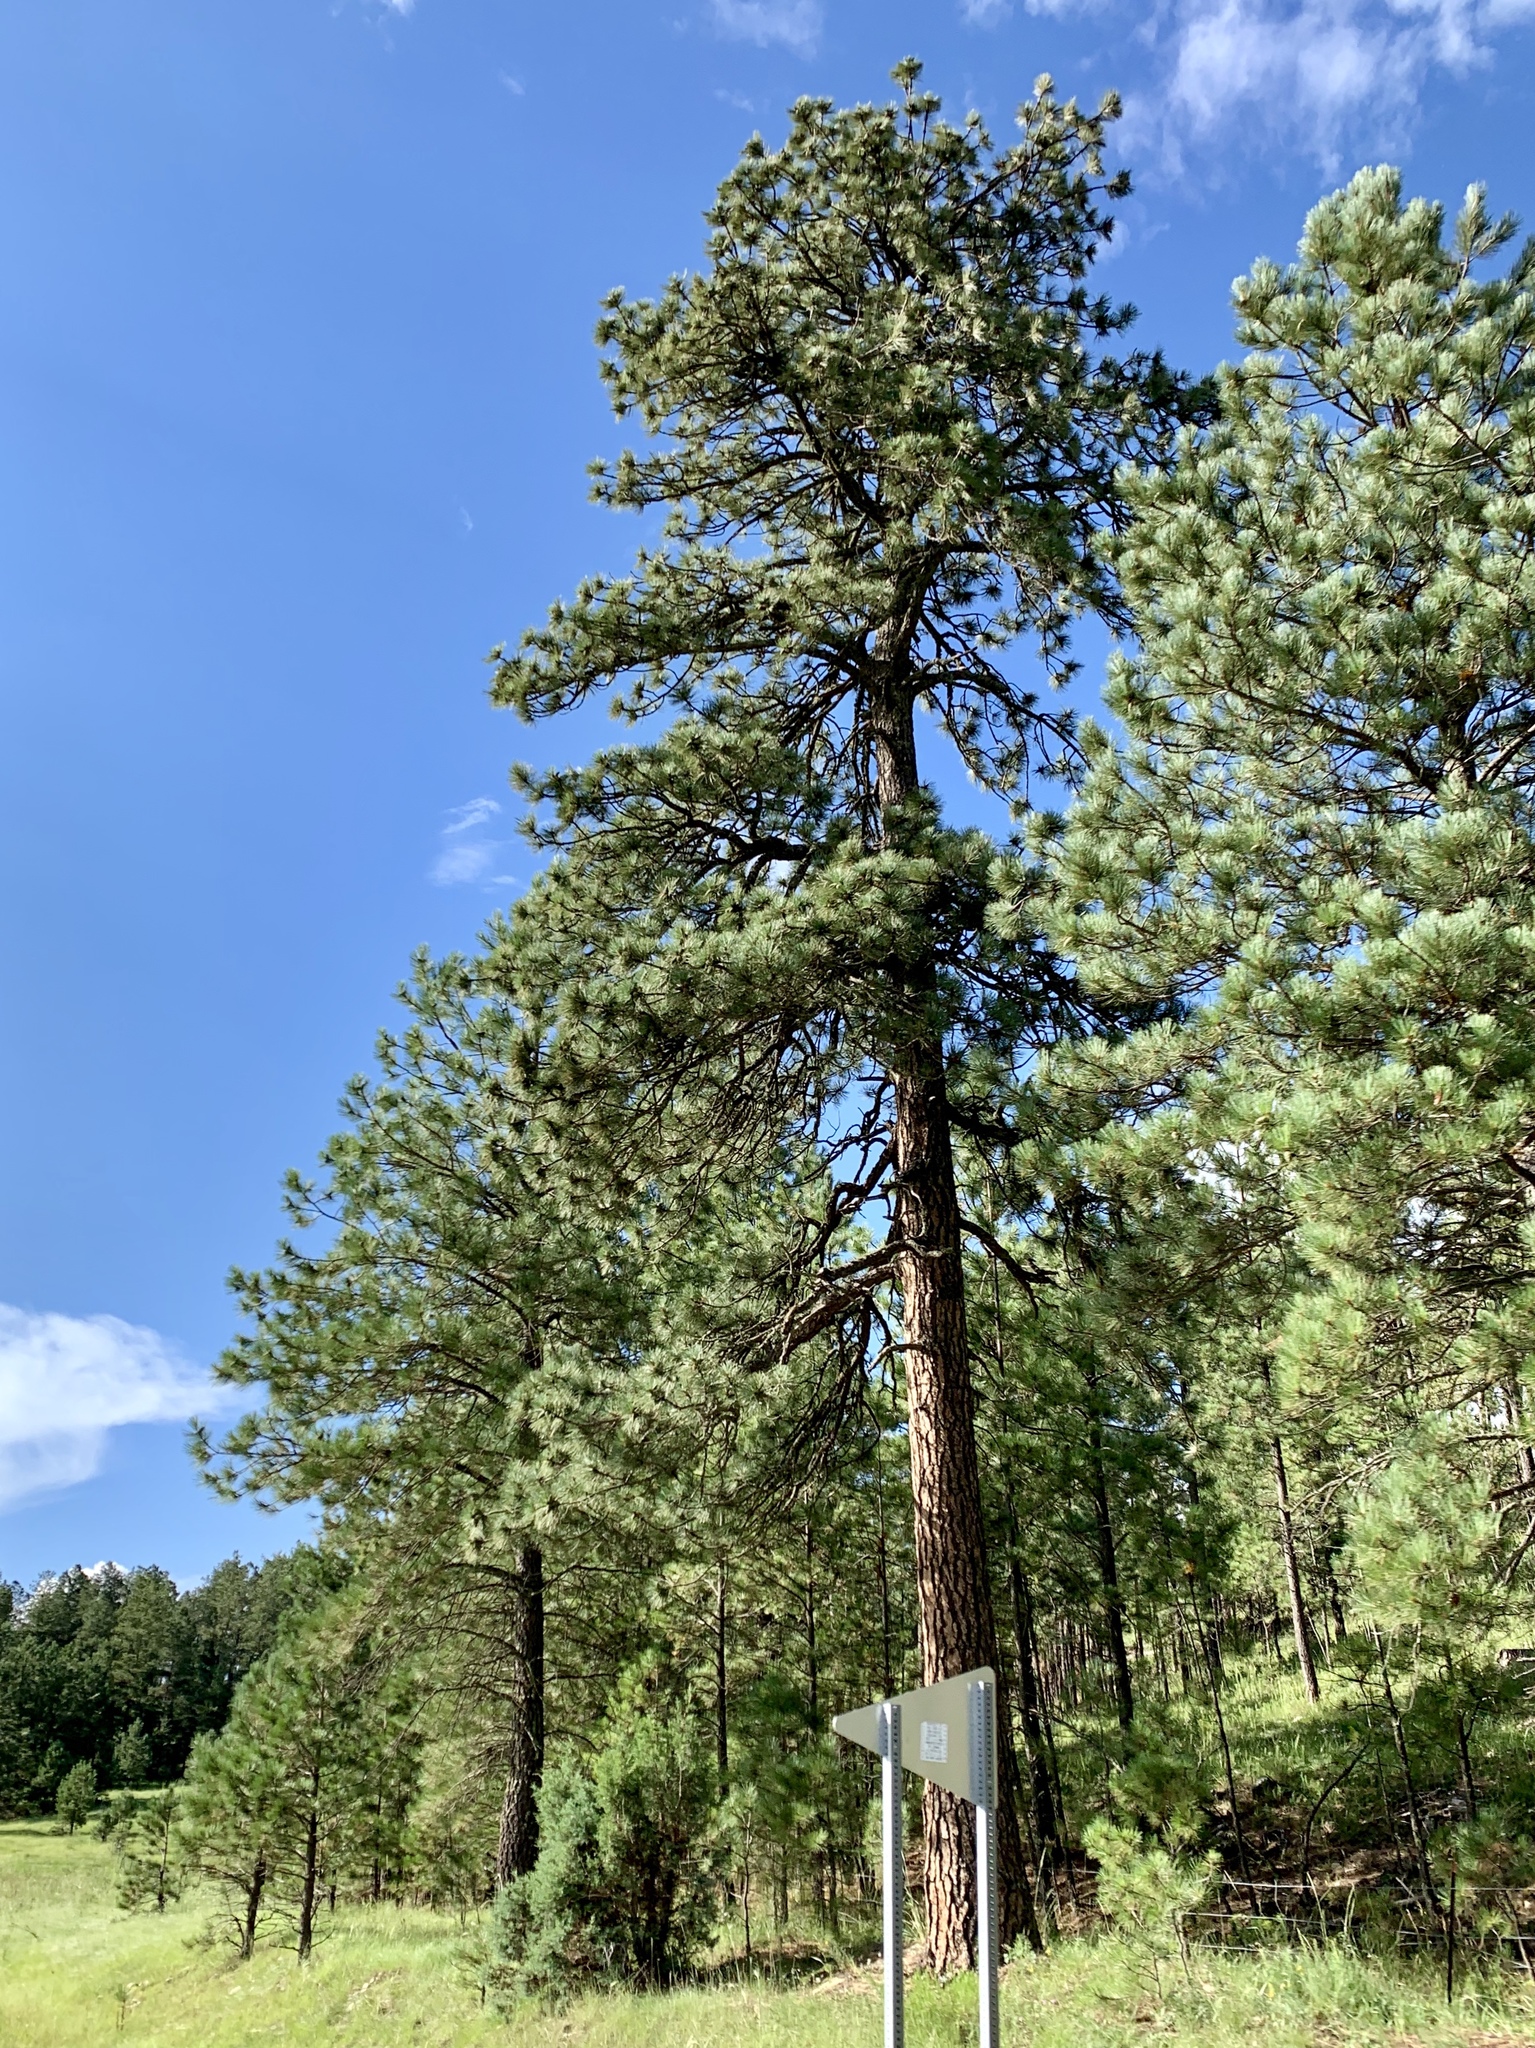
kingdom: Plantae
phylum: Tracheophyta
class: Pinopsida
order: Pinales
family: Pinaceae
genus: Pinus
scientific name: Pinus ponderosa
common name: Western yellow-pine
